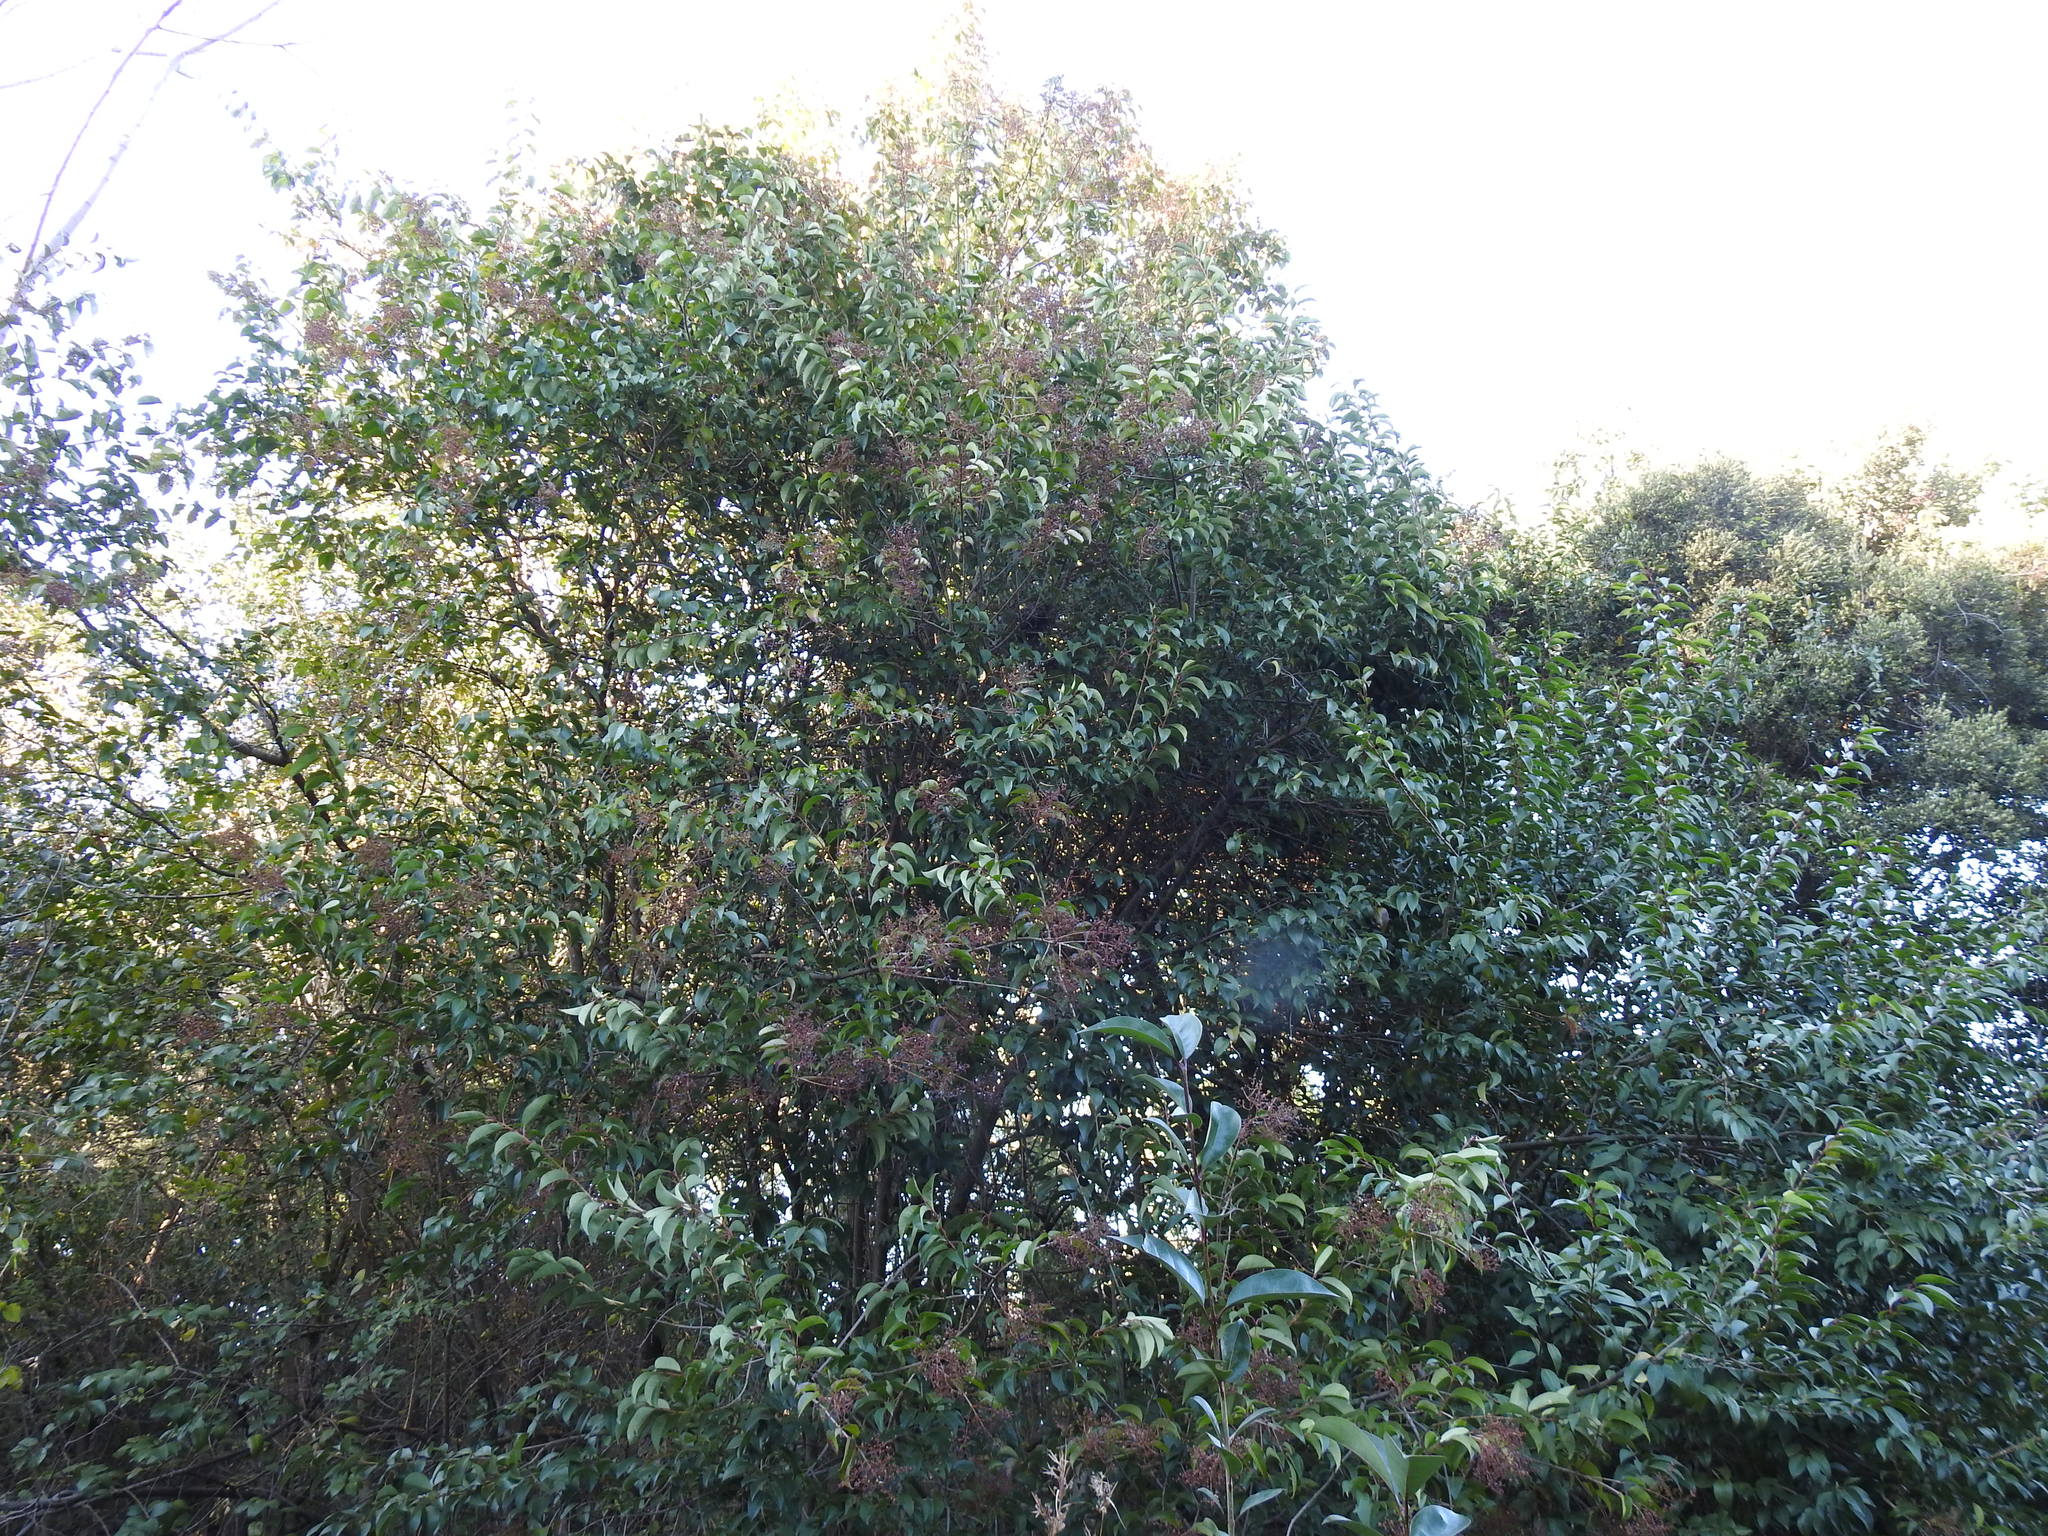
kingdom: Plantae
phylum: Tracheophyta
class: Magnoliopsida
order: Lamiales
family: Oleaceae
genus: Ligustrum
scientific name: Ligustrum lucidum
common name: Glossy privet
